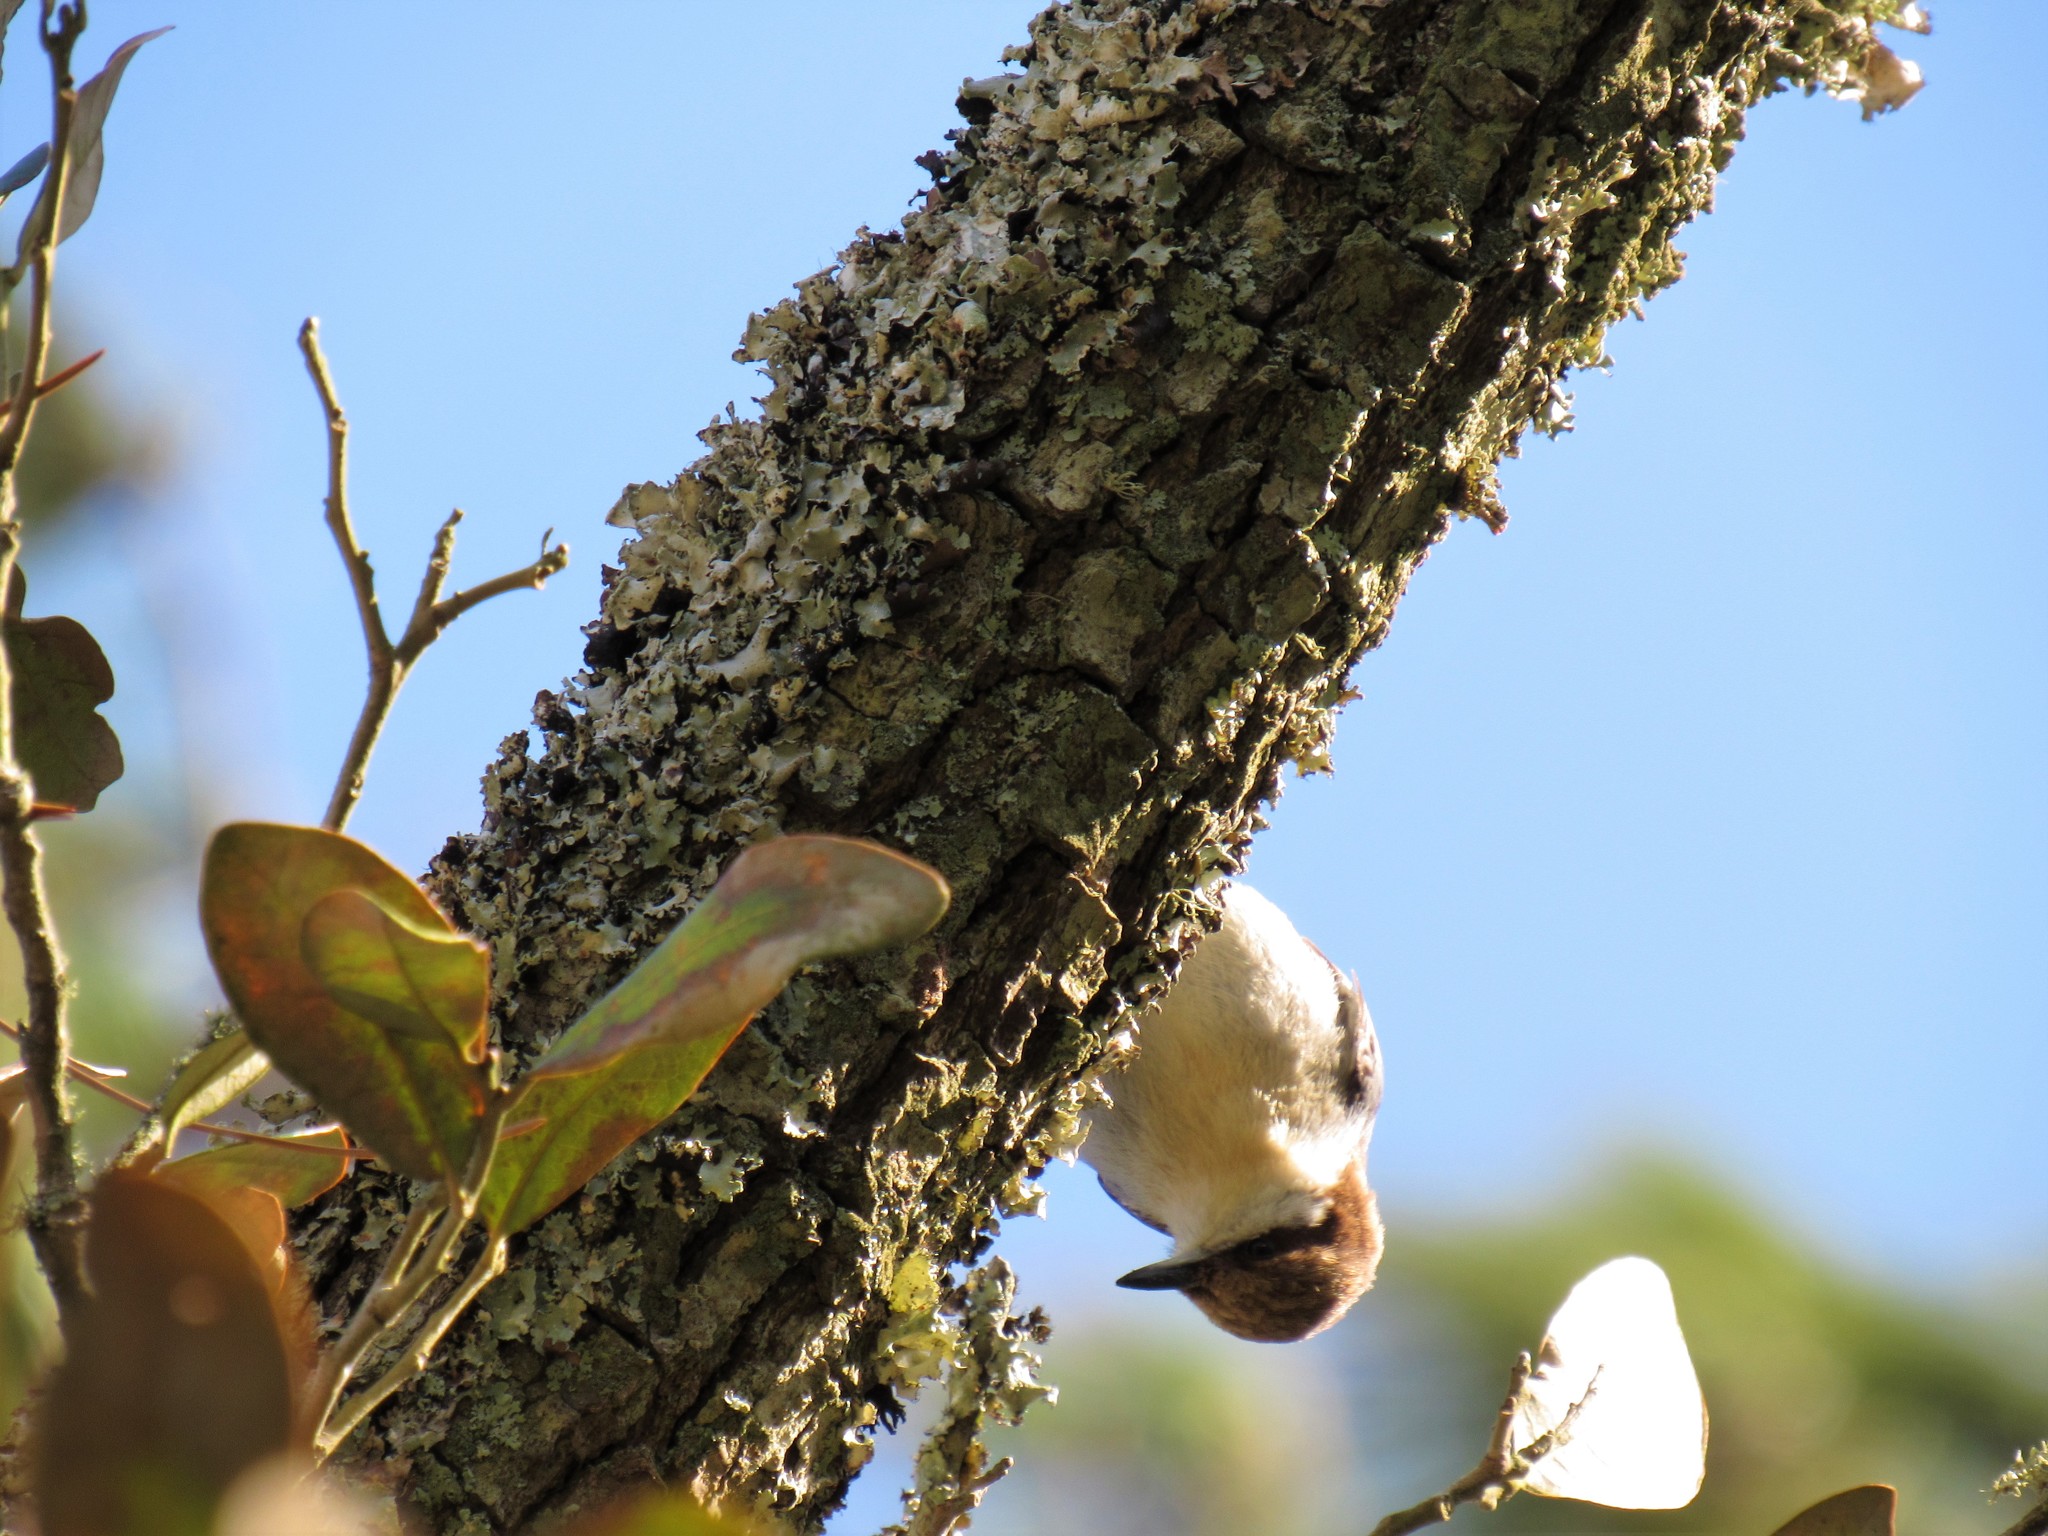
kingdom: Animalia
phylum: Chordata
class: Aves
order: Passeriformes
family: Sittidae
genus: Sitta
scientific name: Sitta pusilla
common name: Brown-headed nuthatch
